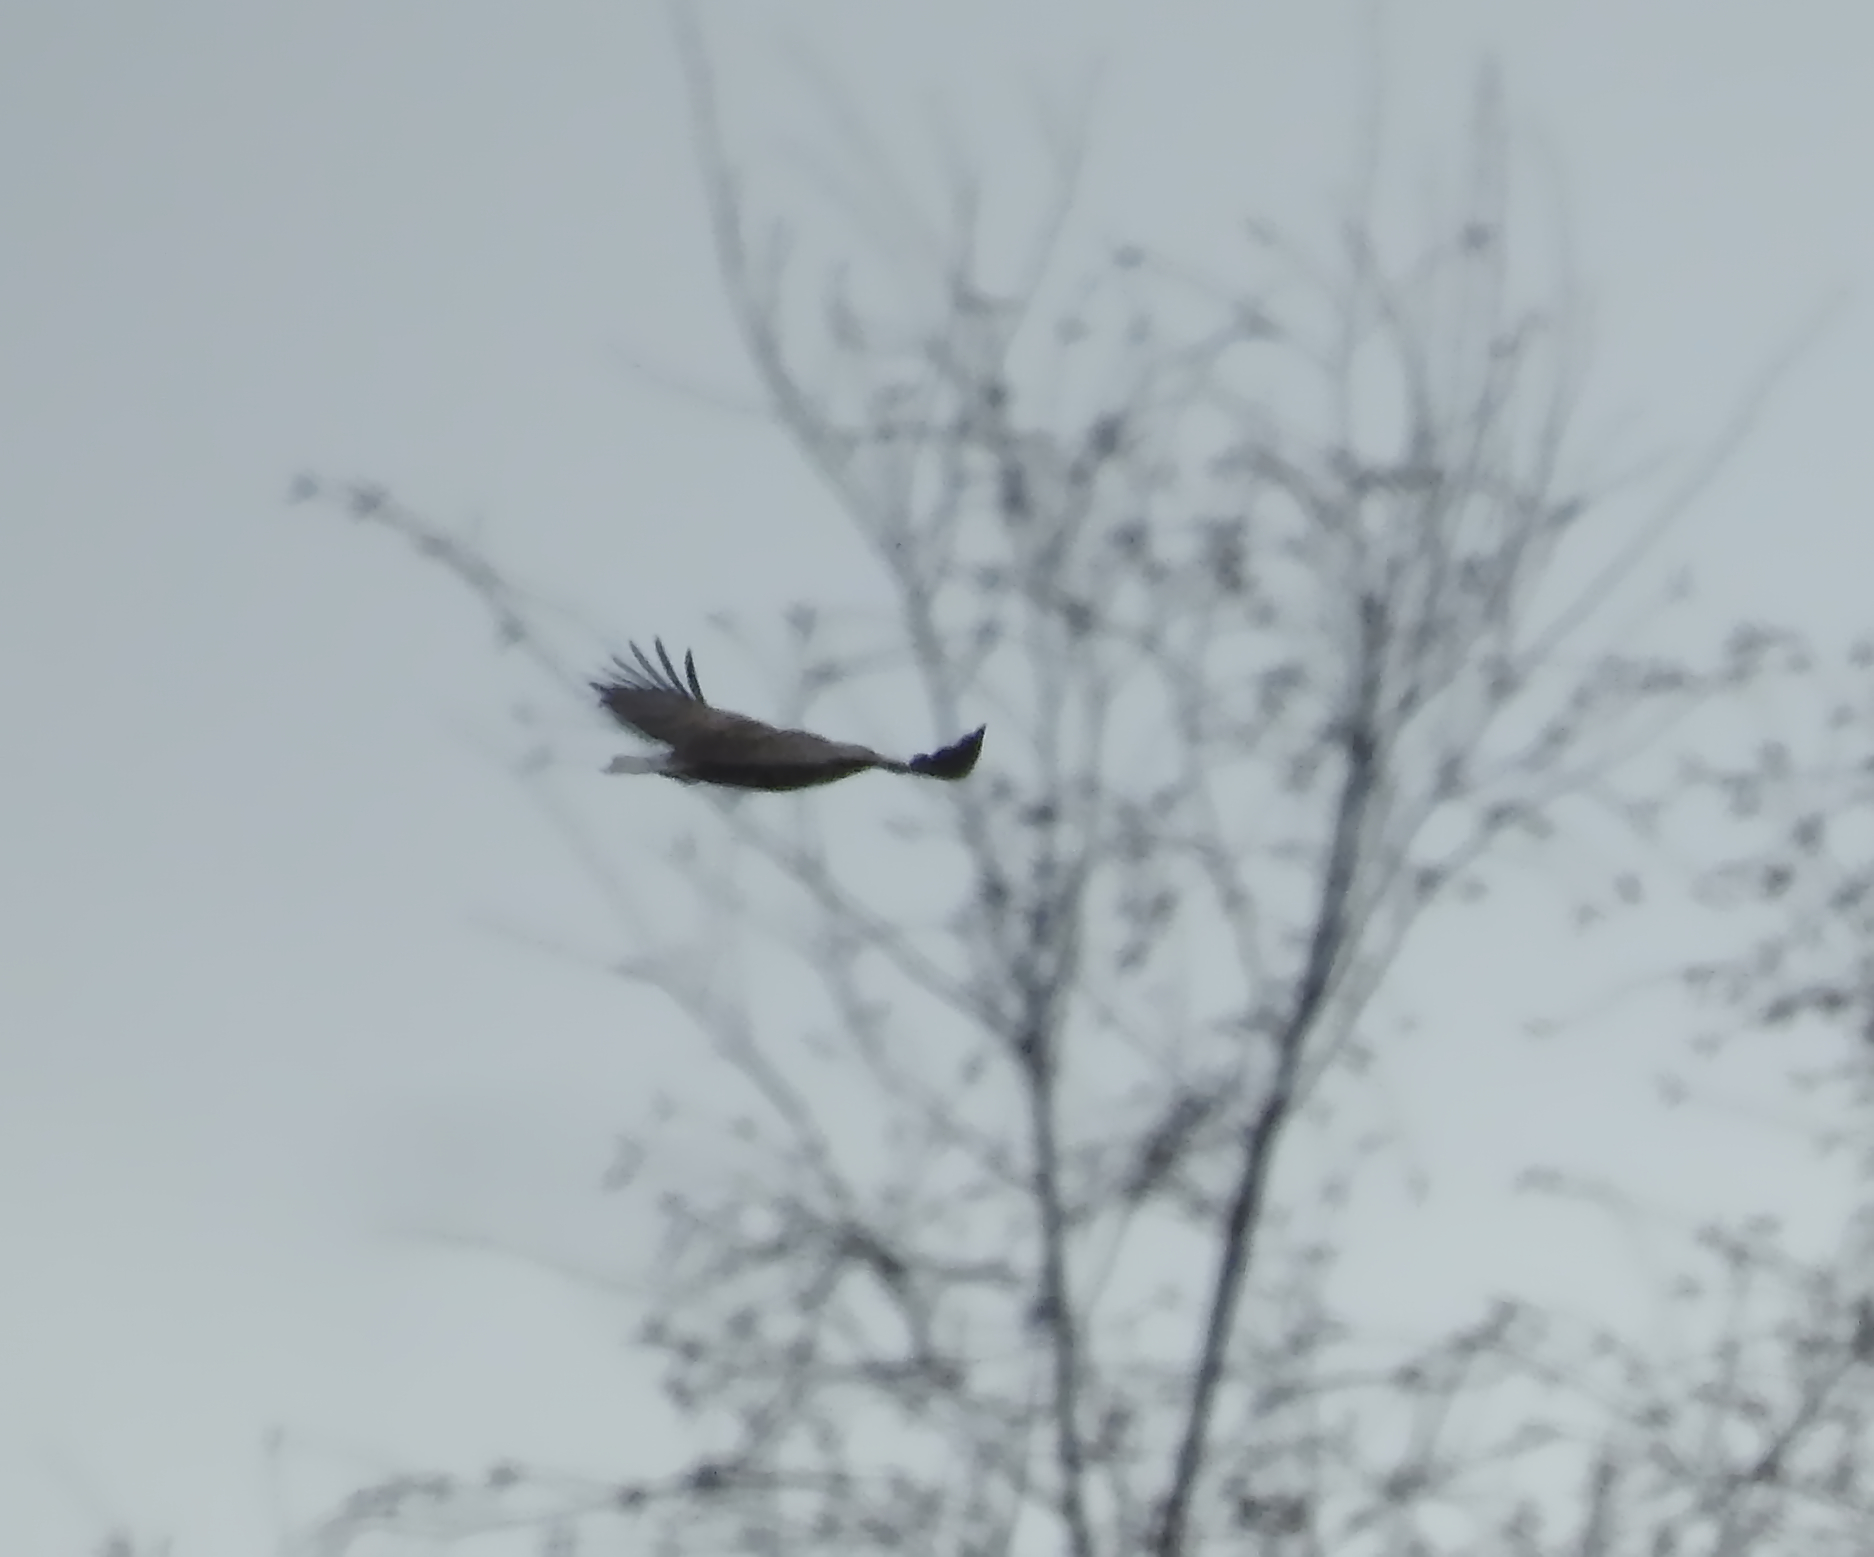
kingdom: Animalia
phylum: Chordata
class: Aves
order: Accipitriformes
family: Accipitridae
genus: Haliaeetus
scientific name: Haliaeetus albicilla
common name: White-tailed eagle
